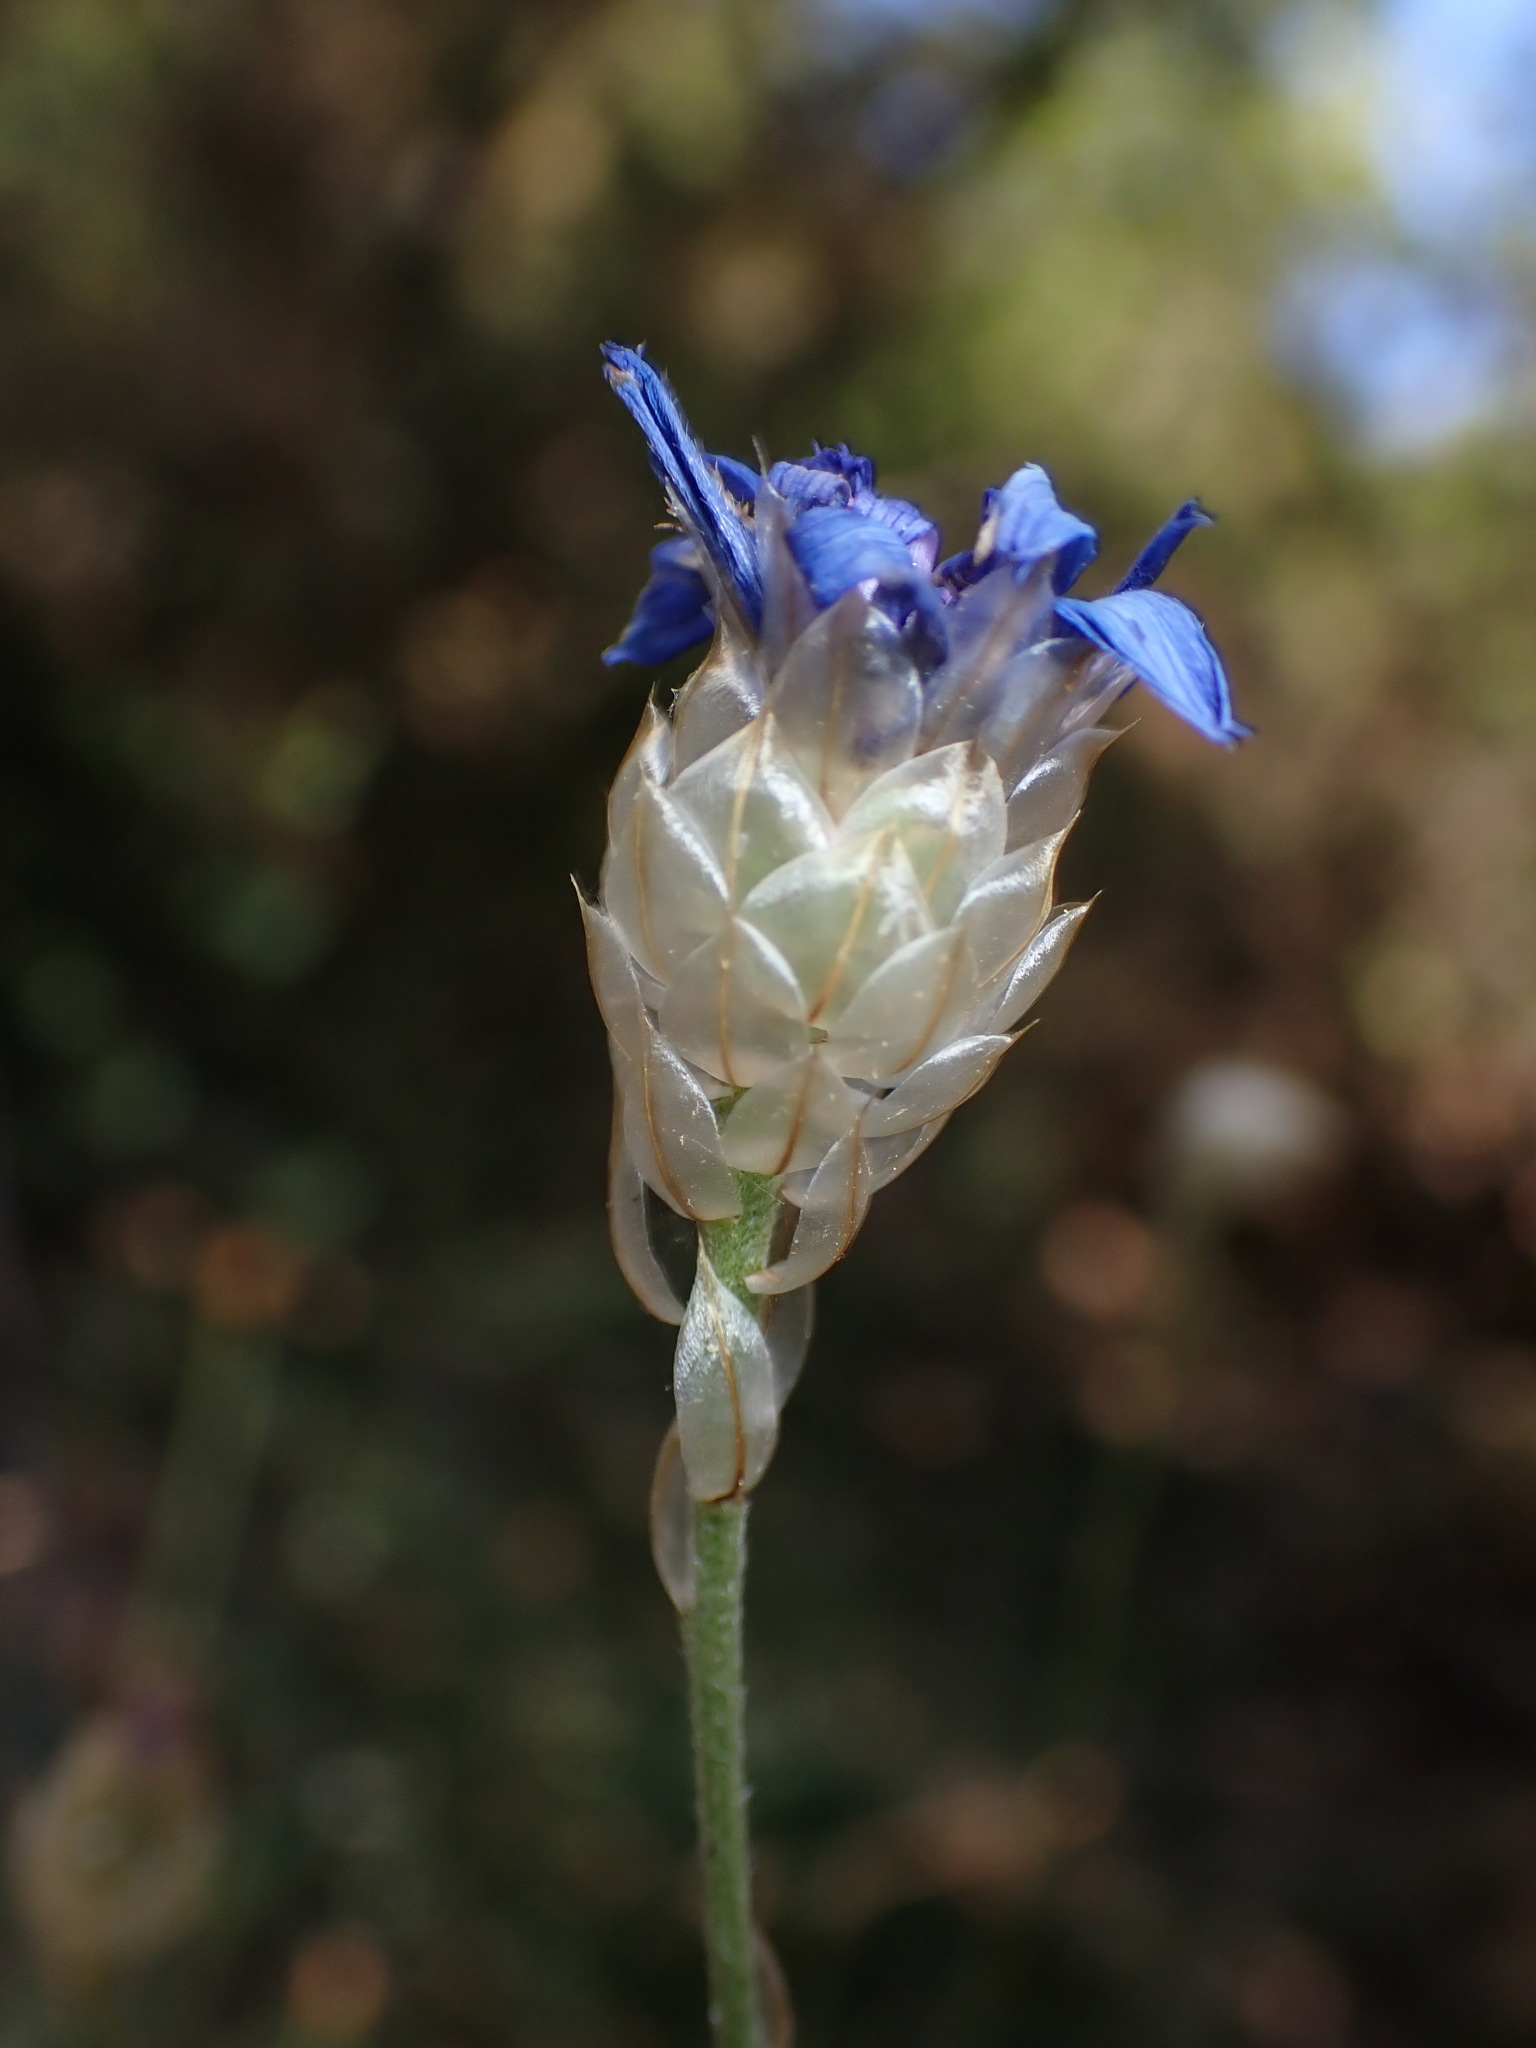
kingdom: Plantae
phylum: Tracheophyta
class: Magnoliopsida
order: Asterales
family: Asteraceae
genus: Catananche
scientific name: Catananche caerulea
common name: Blue cupidone
